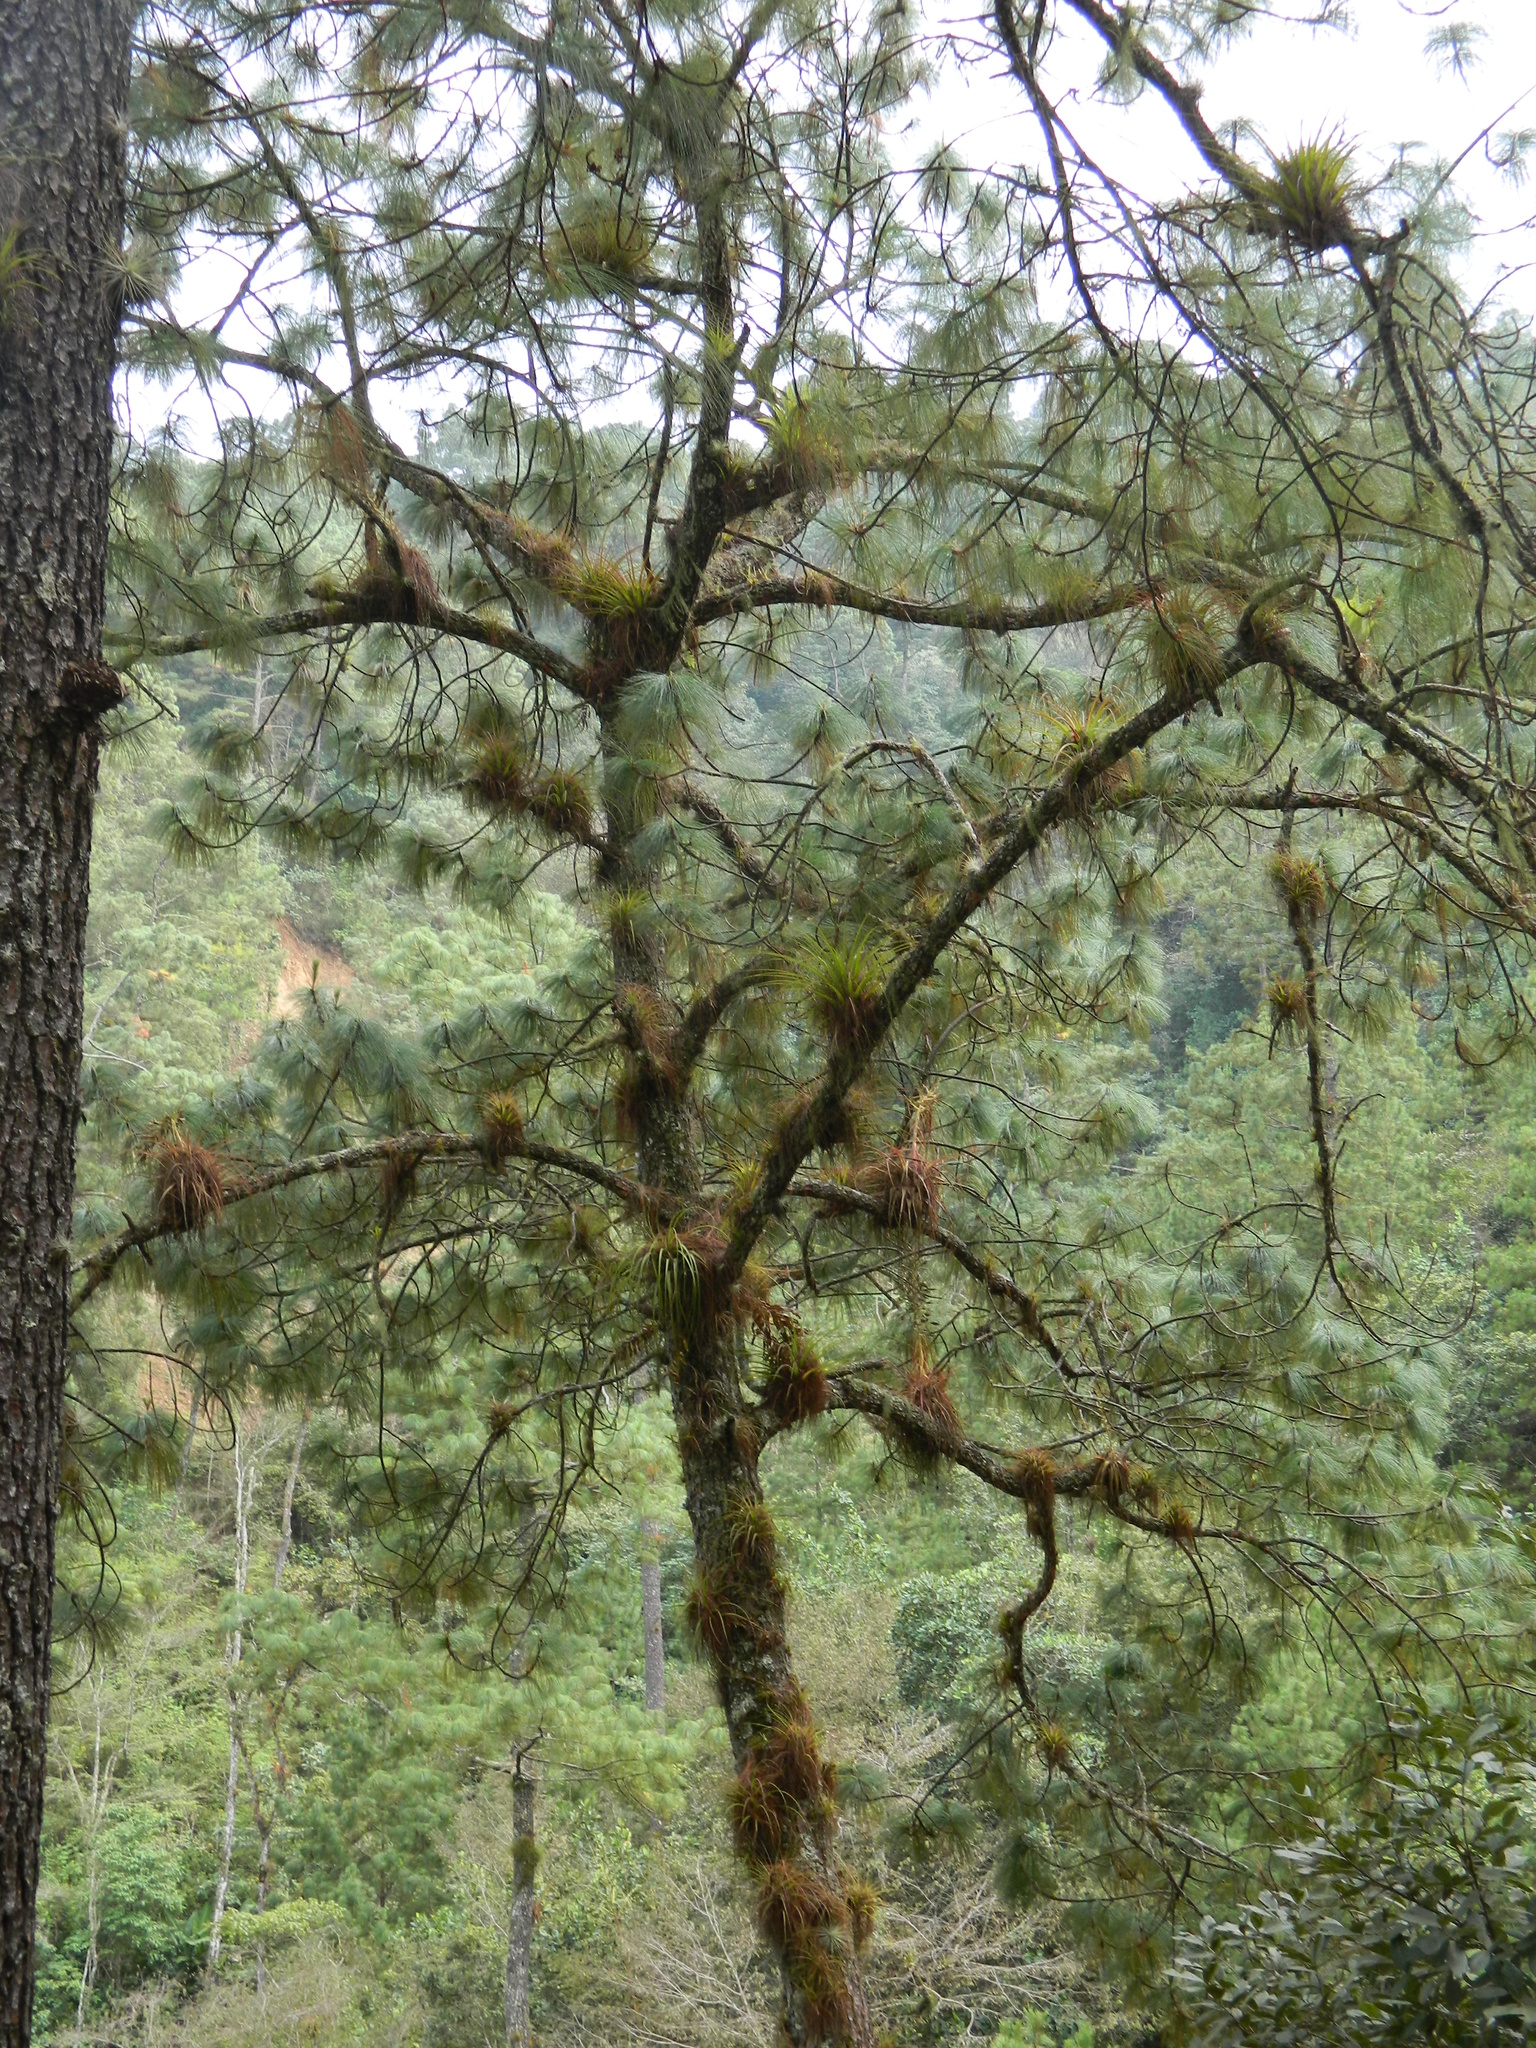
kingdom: Plantae
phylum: Tracheophyta
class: Liliopsida
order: Poales
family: Bromeliaceae
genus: Tillandsia
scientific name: Tillandsia calothyrsus
